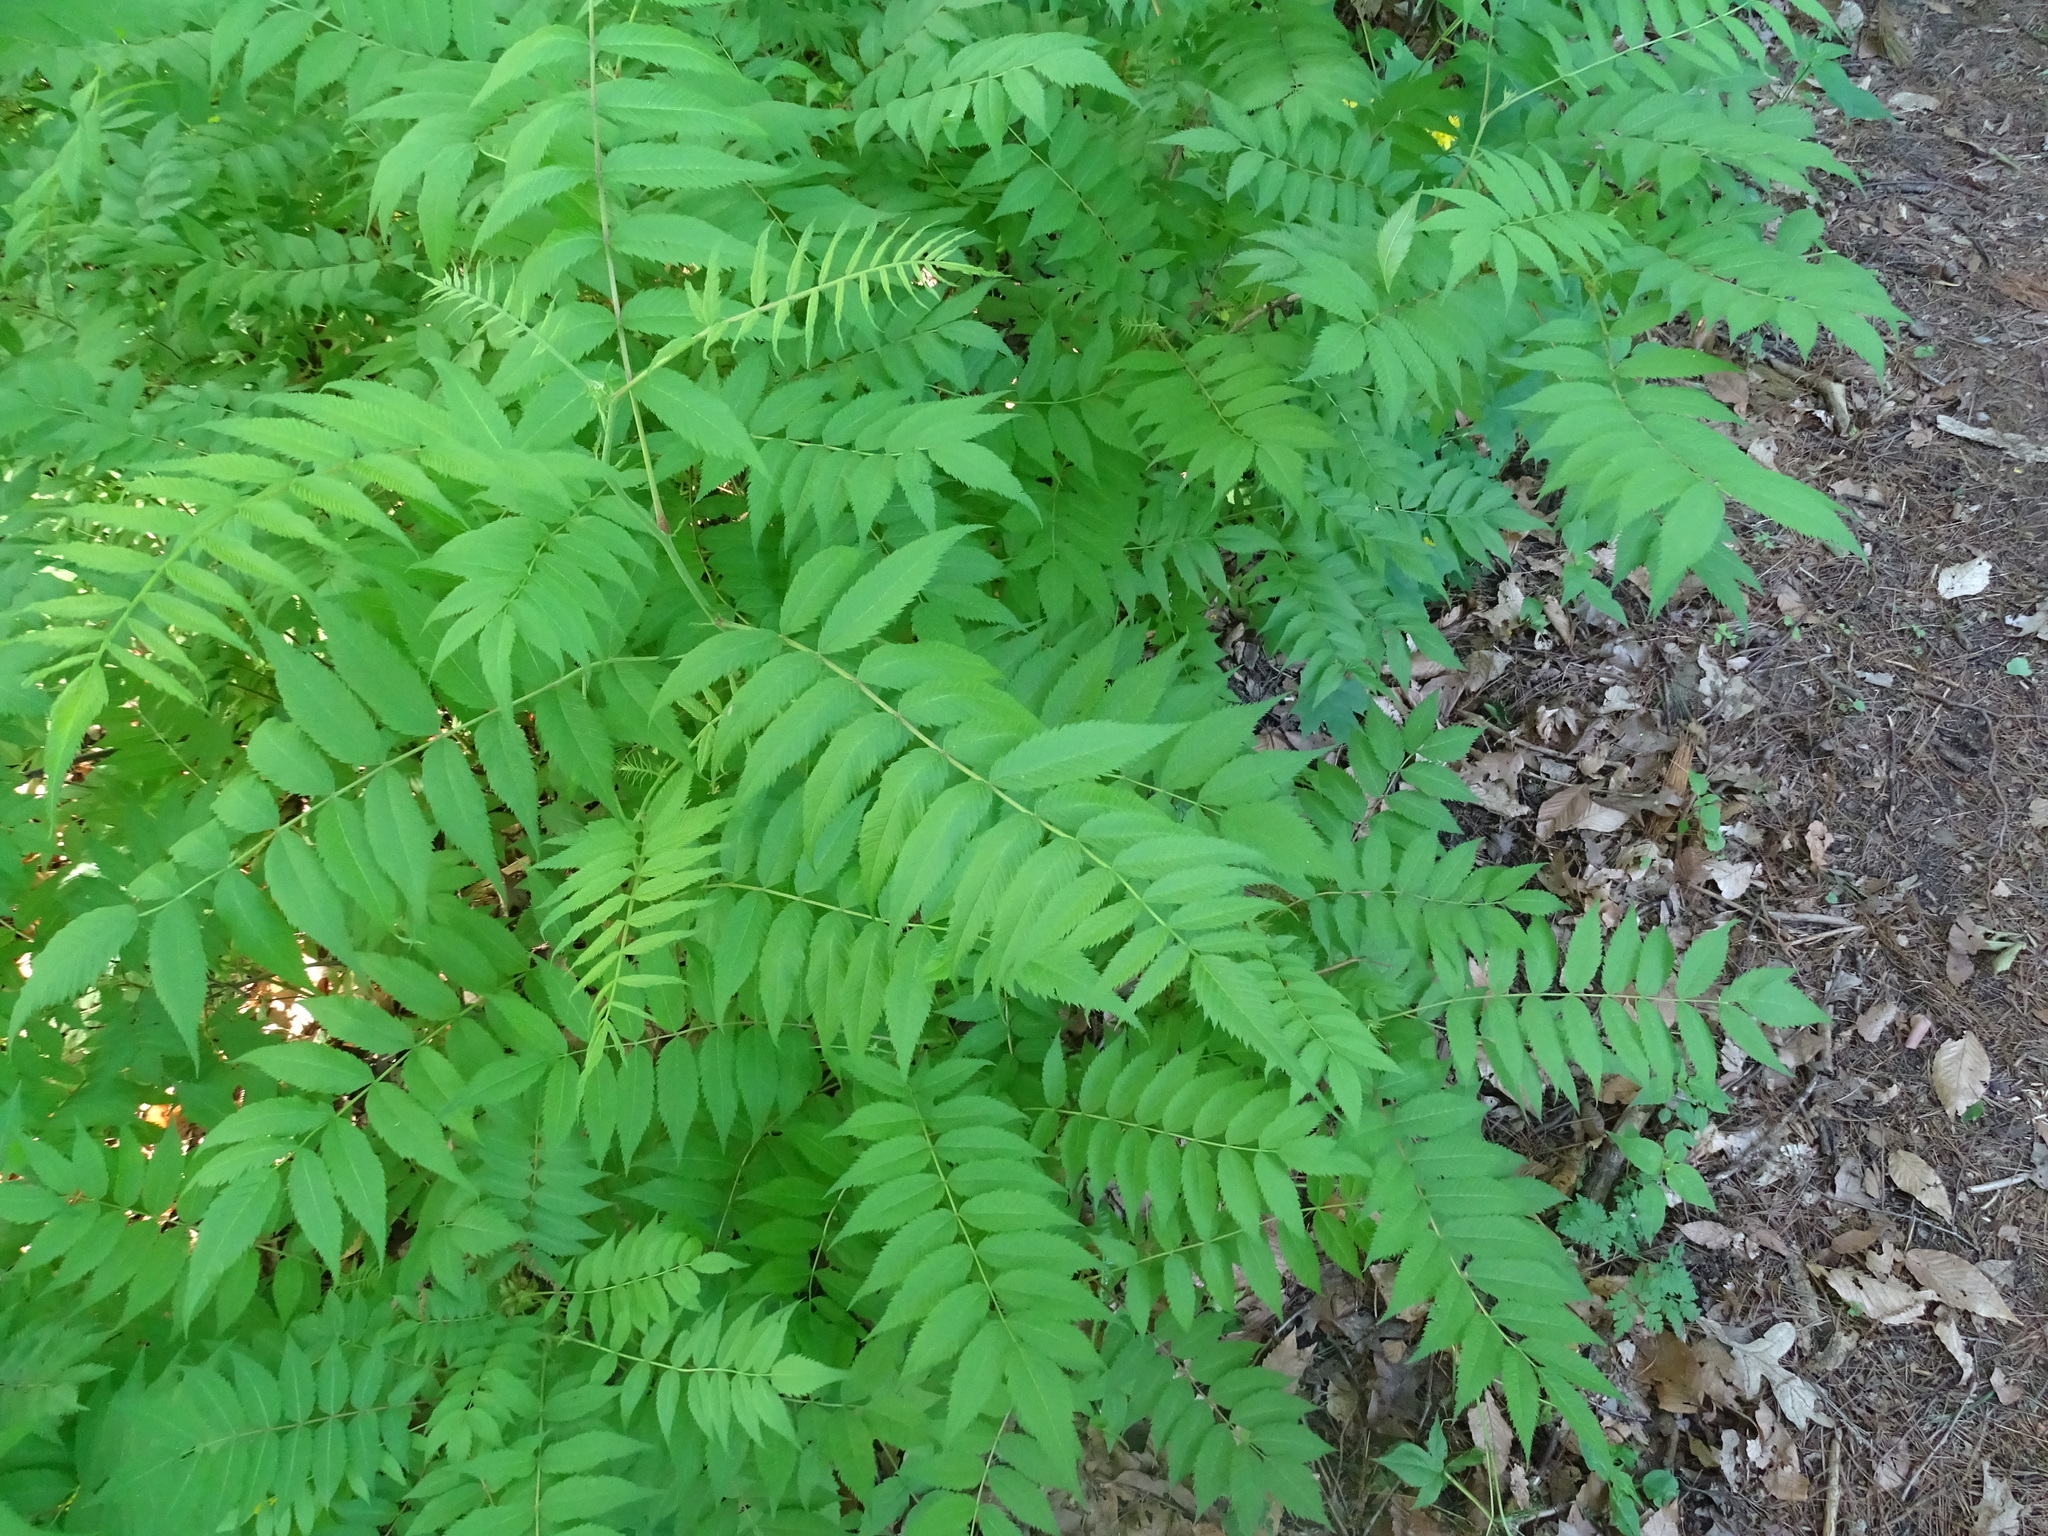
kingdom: Plantae
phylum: Tracheophyta
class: Magnoliopsida
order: Rosales
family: Rosaceae
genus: Sorbaria
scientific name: Sorbaria sorbifolia
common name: False spiraea
